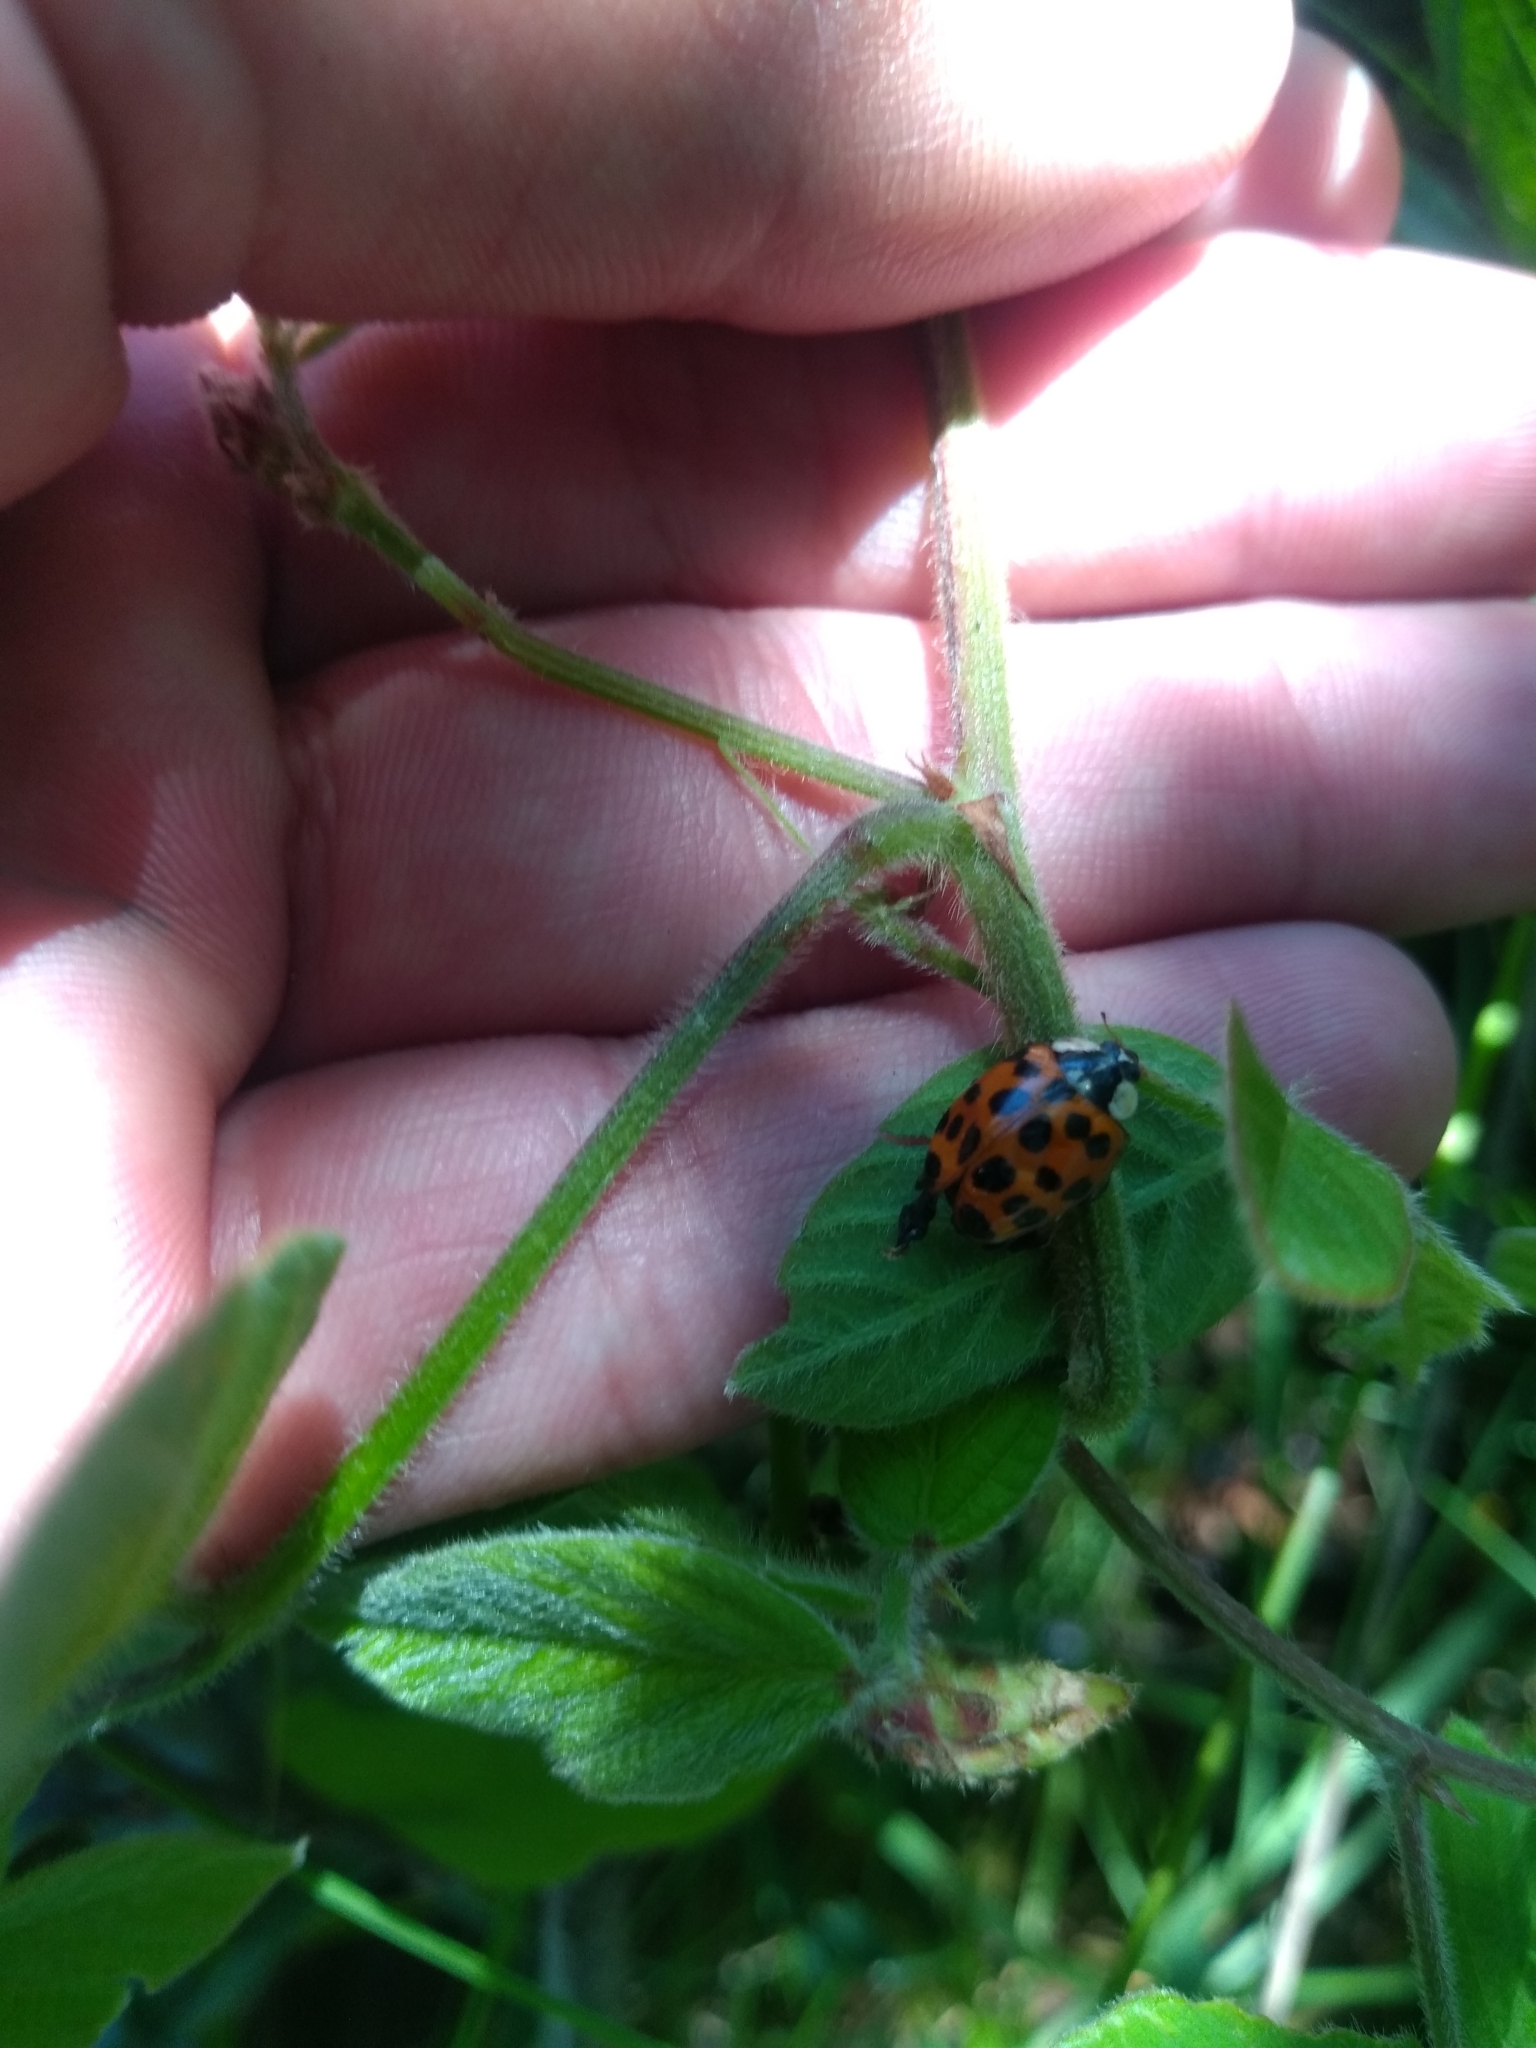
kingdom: Animalia
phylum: Arthropoda
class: Insecta
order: Coleoptera
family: Coccinellidae
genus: Harmonia
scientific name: Harmonia axyridis
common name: Harlequin ladybird
